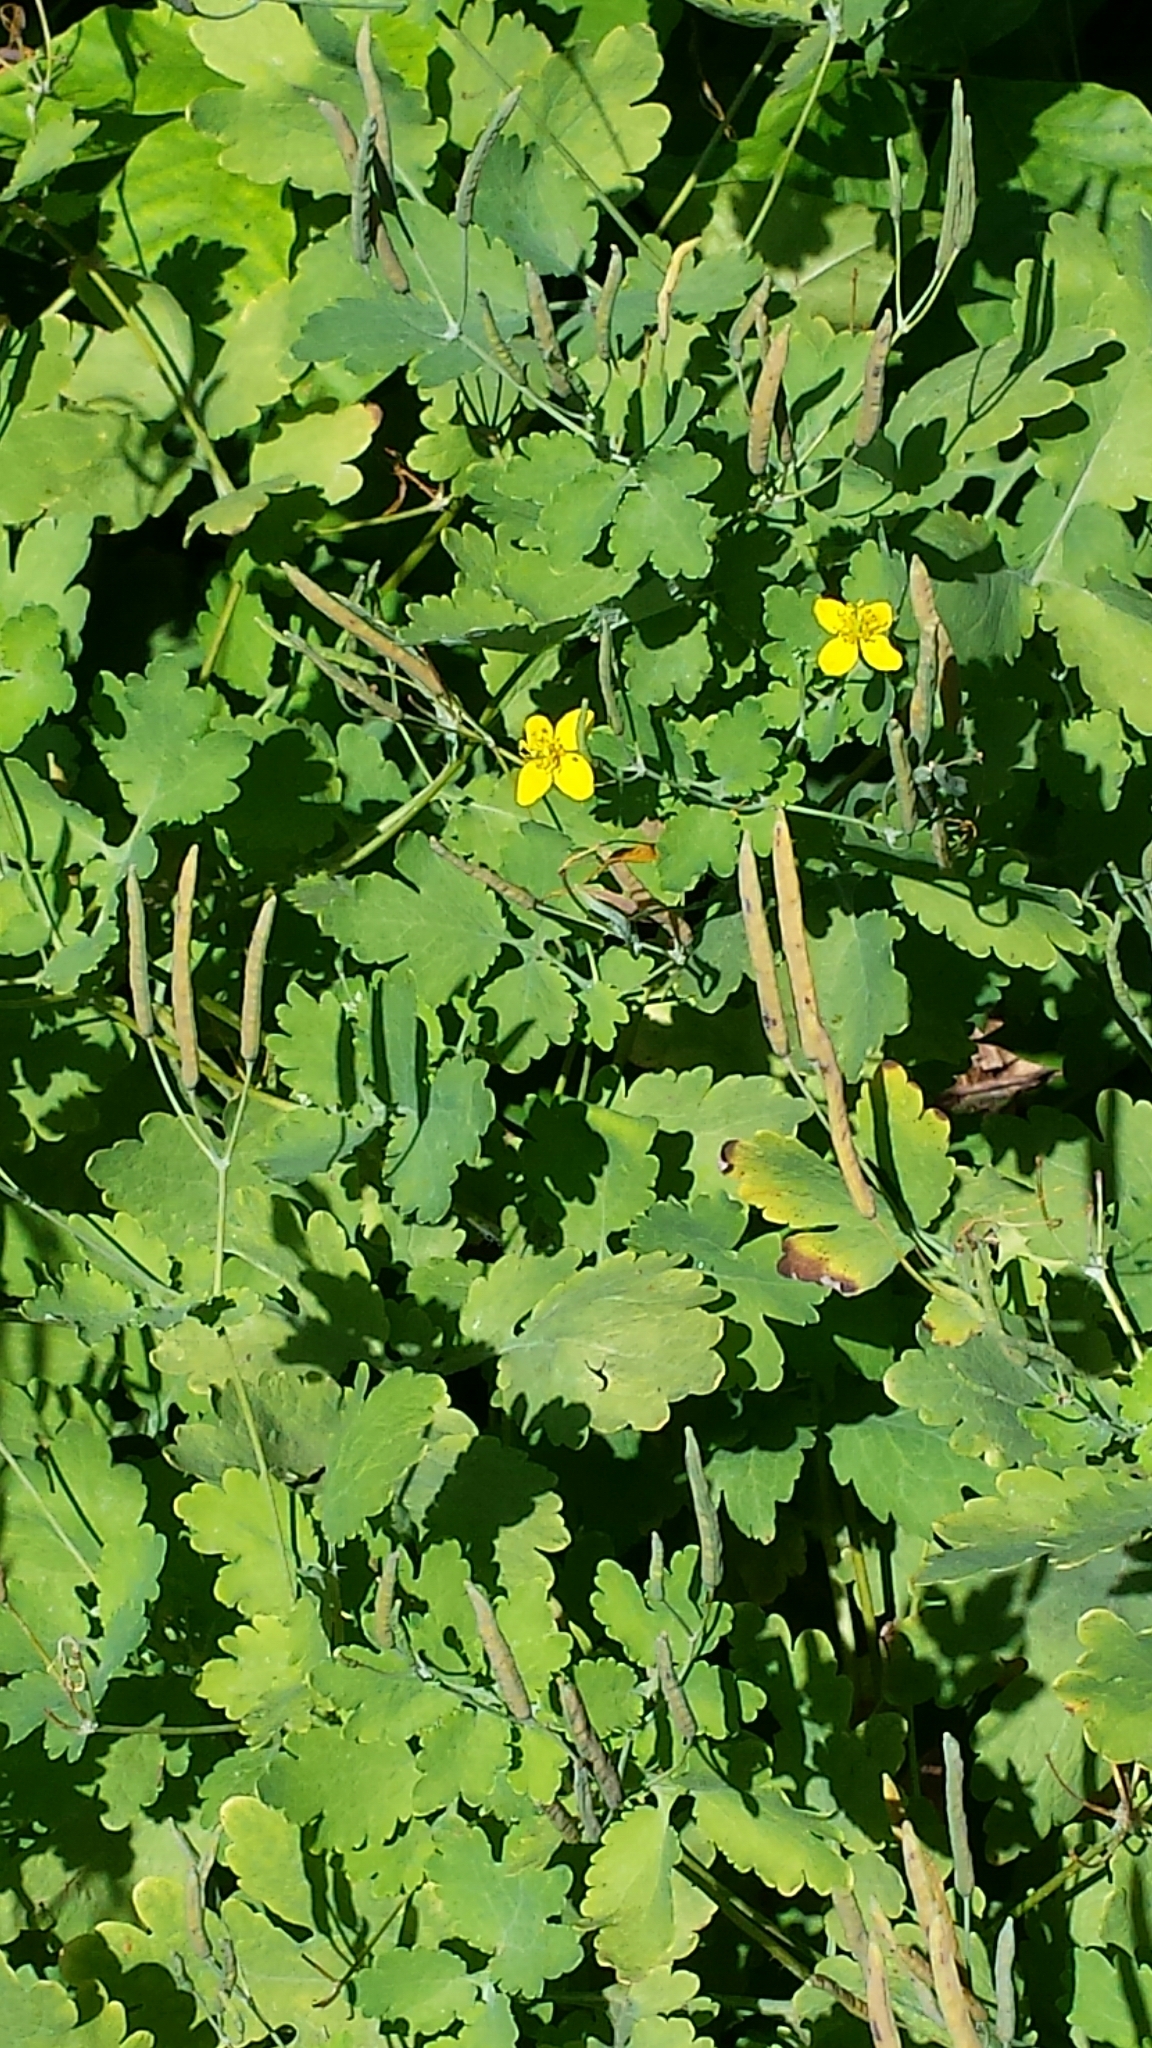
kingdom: Plantae
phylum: Tracheophyta
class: Magnoliopsida
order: Ranunculales
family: Papaveraceae
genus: Chelidonium
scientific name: Chelidonium majus
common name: Greater celandine
